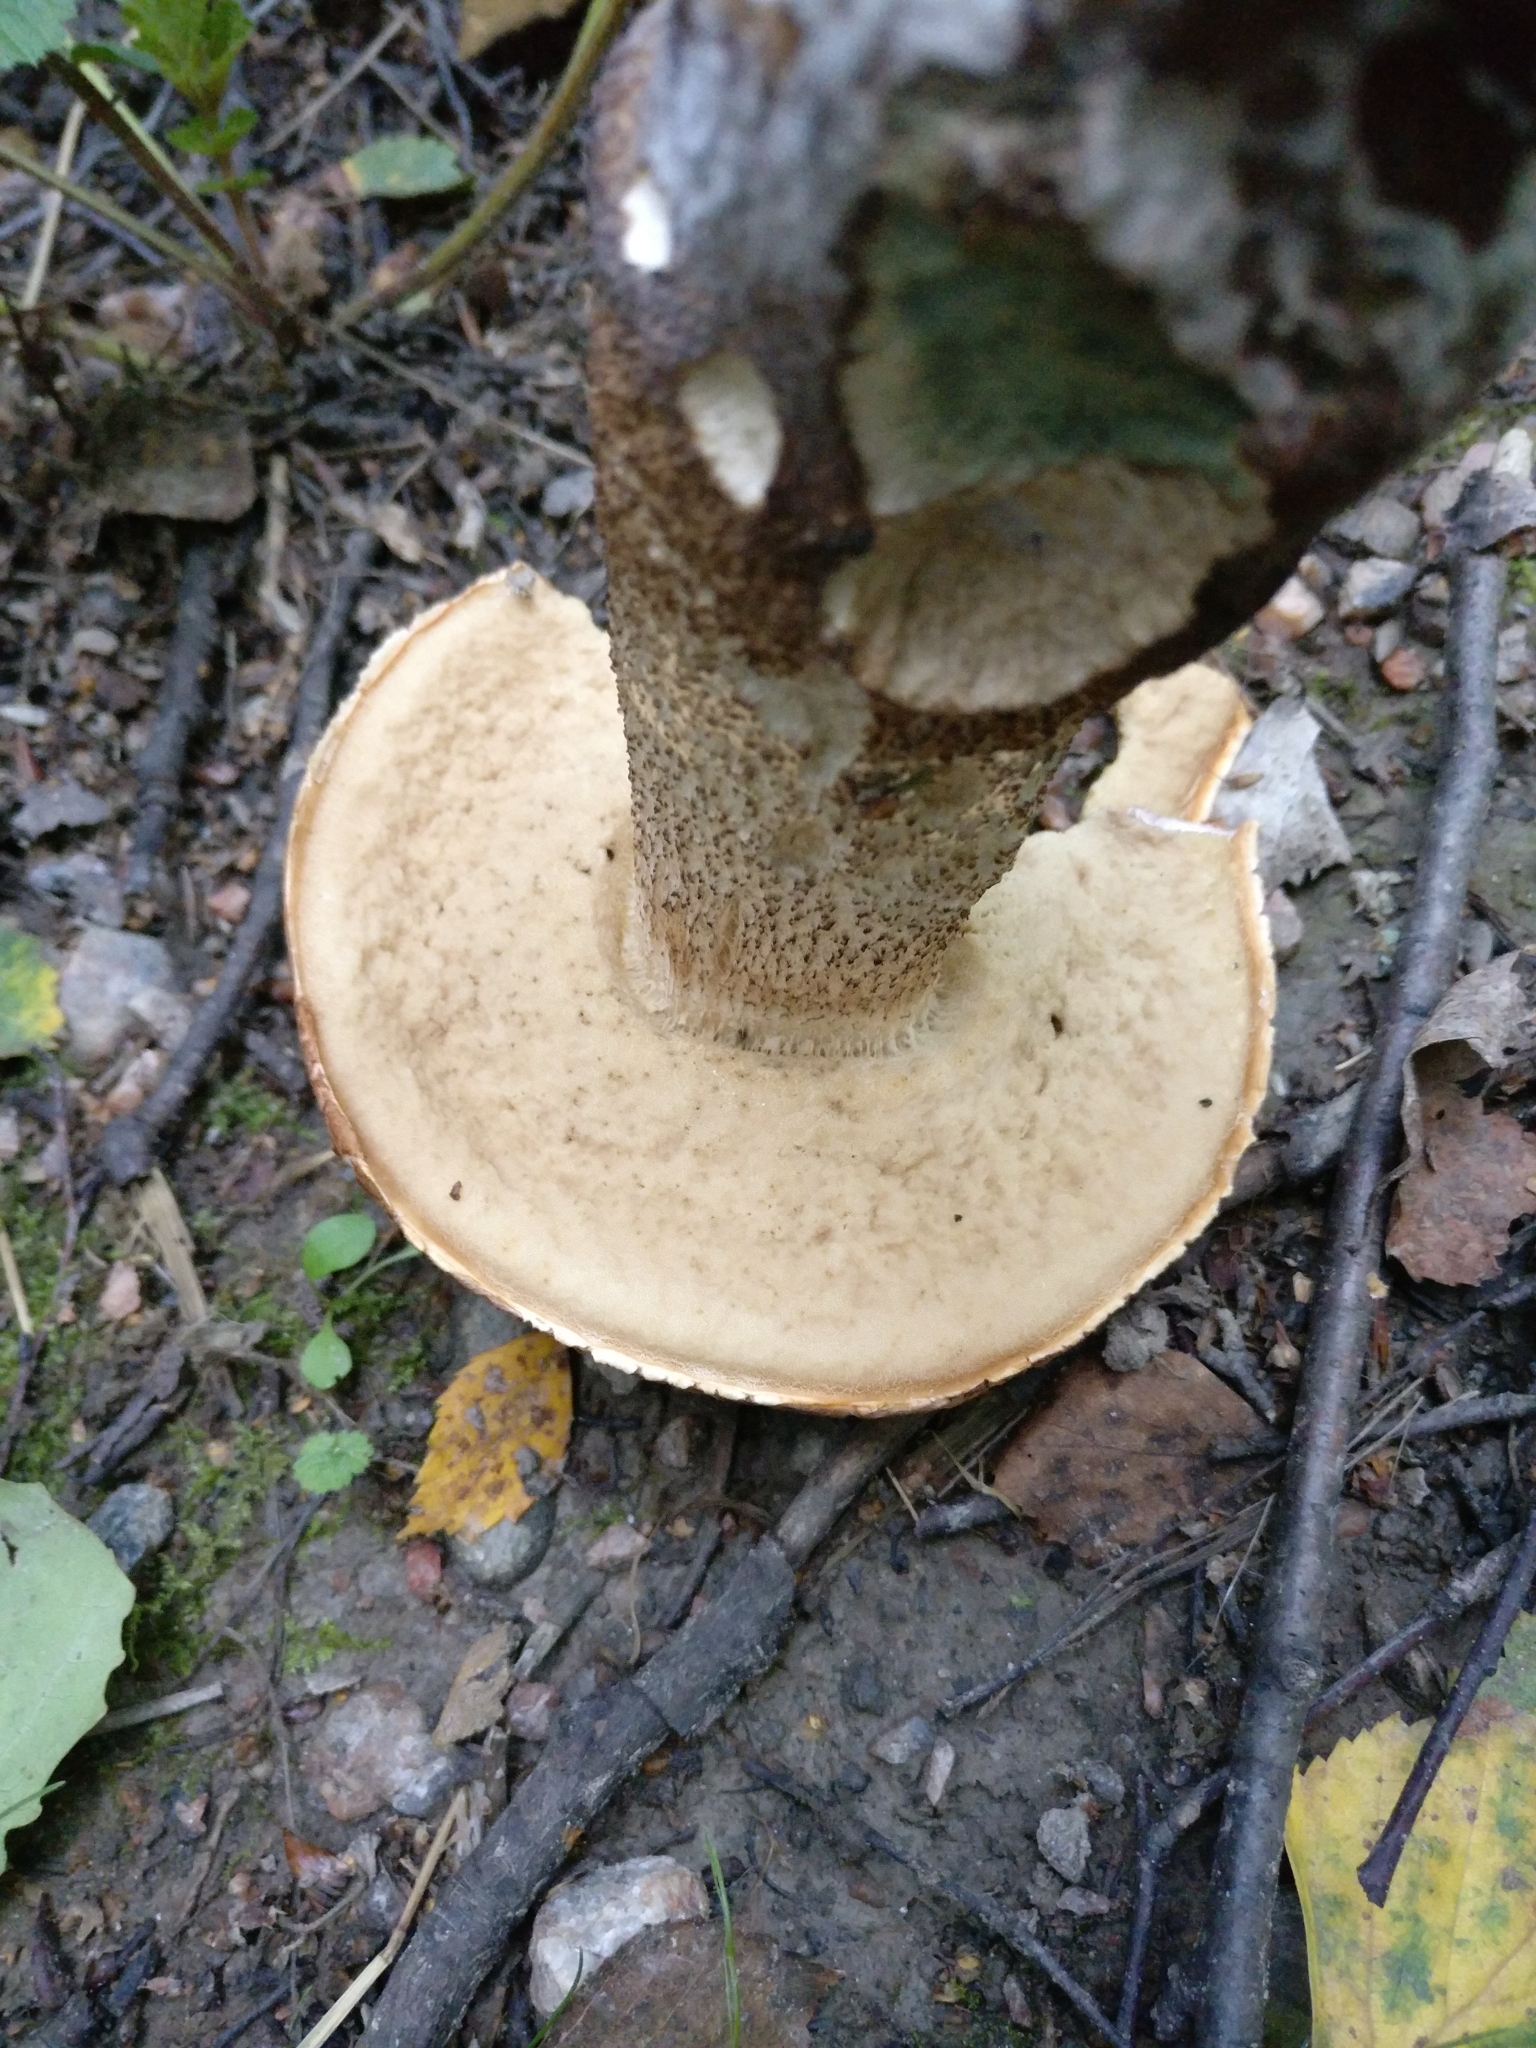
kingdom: Fungi
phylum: Basidiomycota
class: Agaricomycetes
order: Boletales
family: Boletaceae
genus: Leccinum
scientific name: Leccinum aurantiacum
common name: Orange bolete
